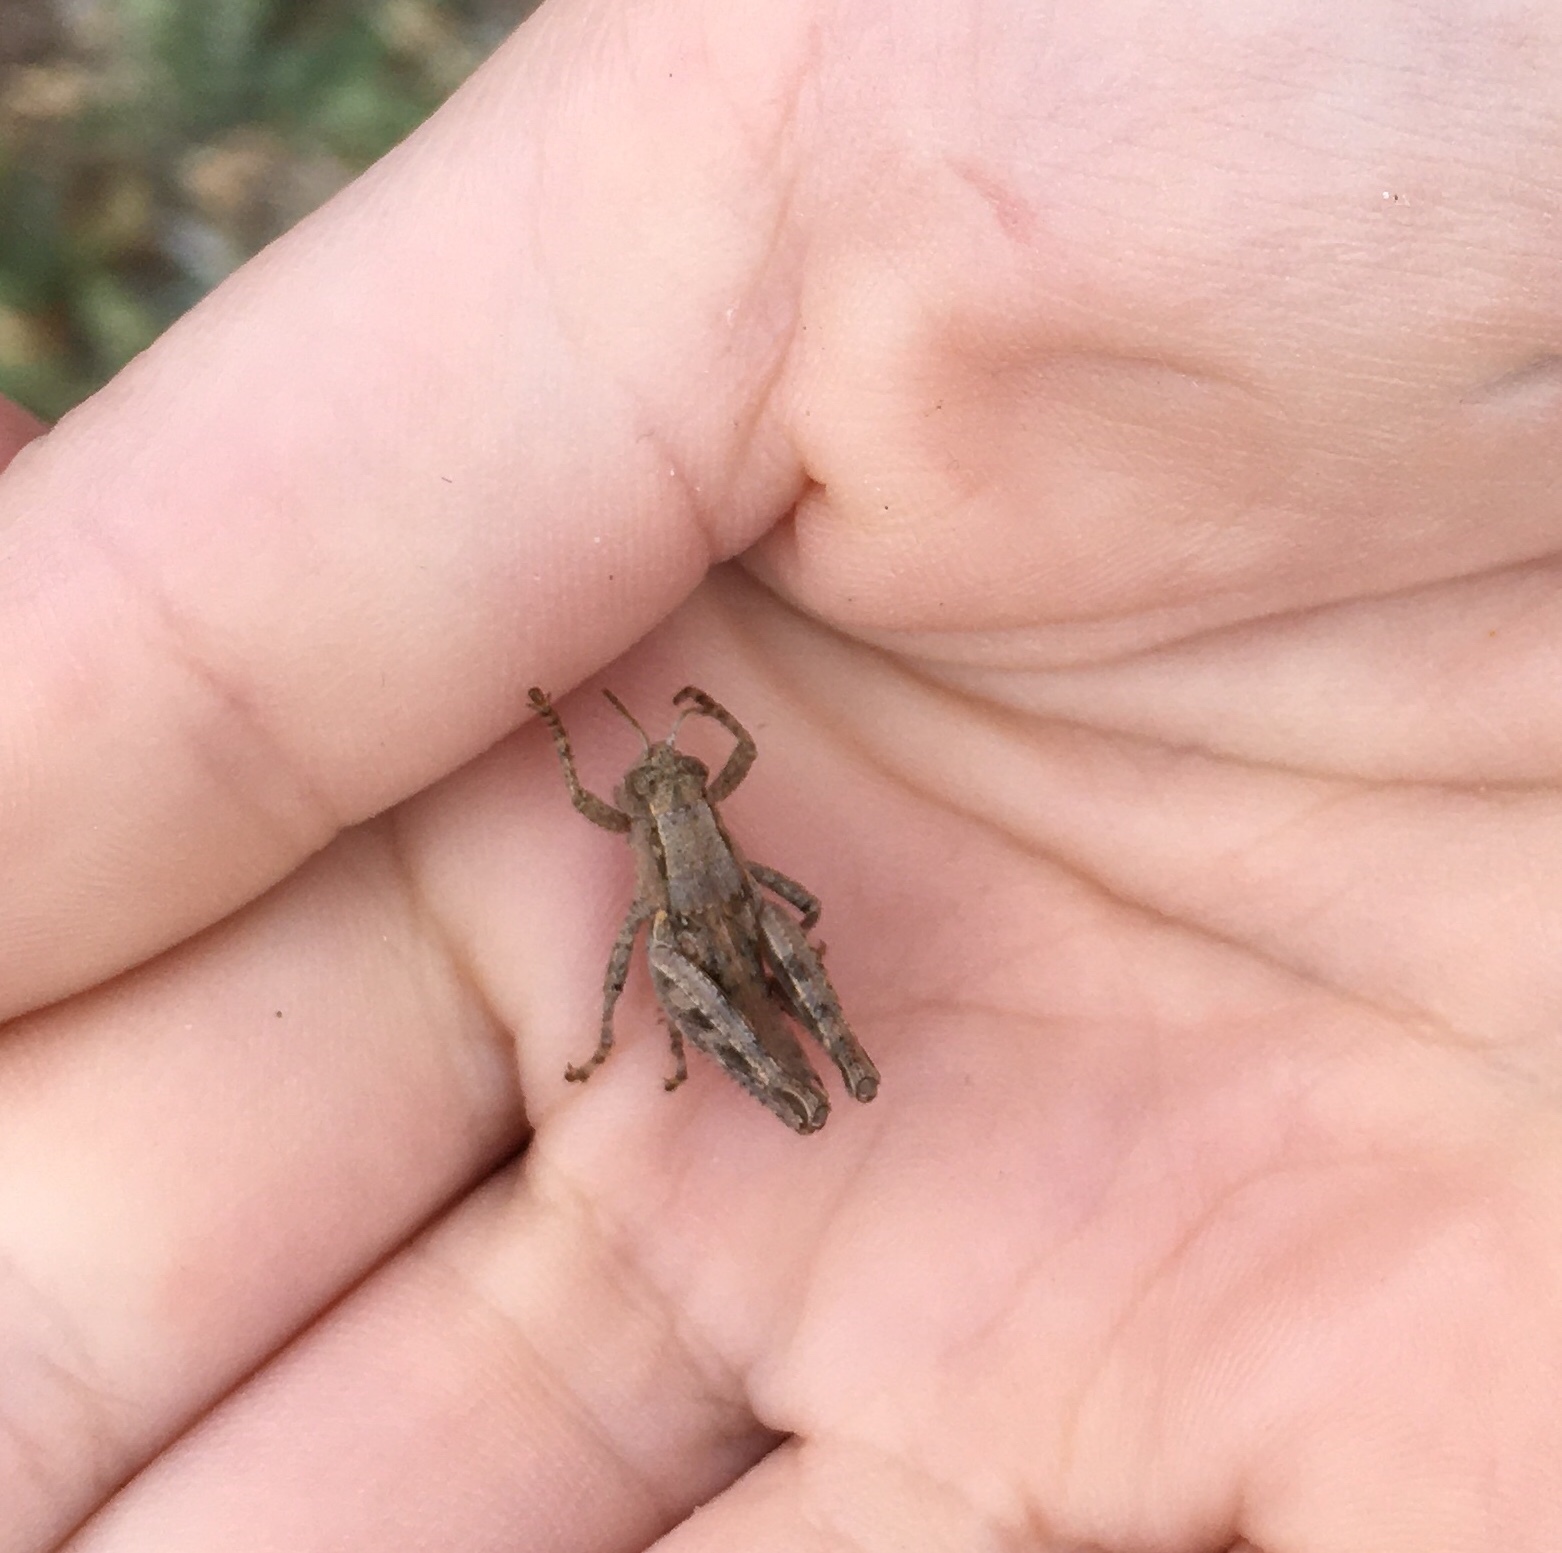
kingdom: Animalia
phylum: Arthropoda
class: Insecta
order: Orthoptera
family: Acrididae
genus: Oedaleonotus
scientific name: Oedaleonotus phryneicus
